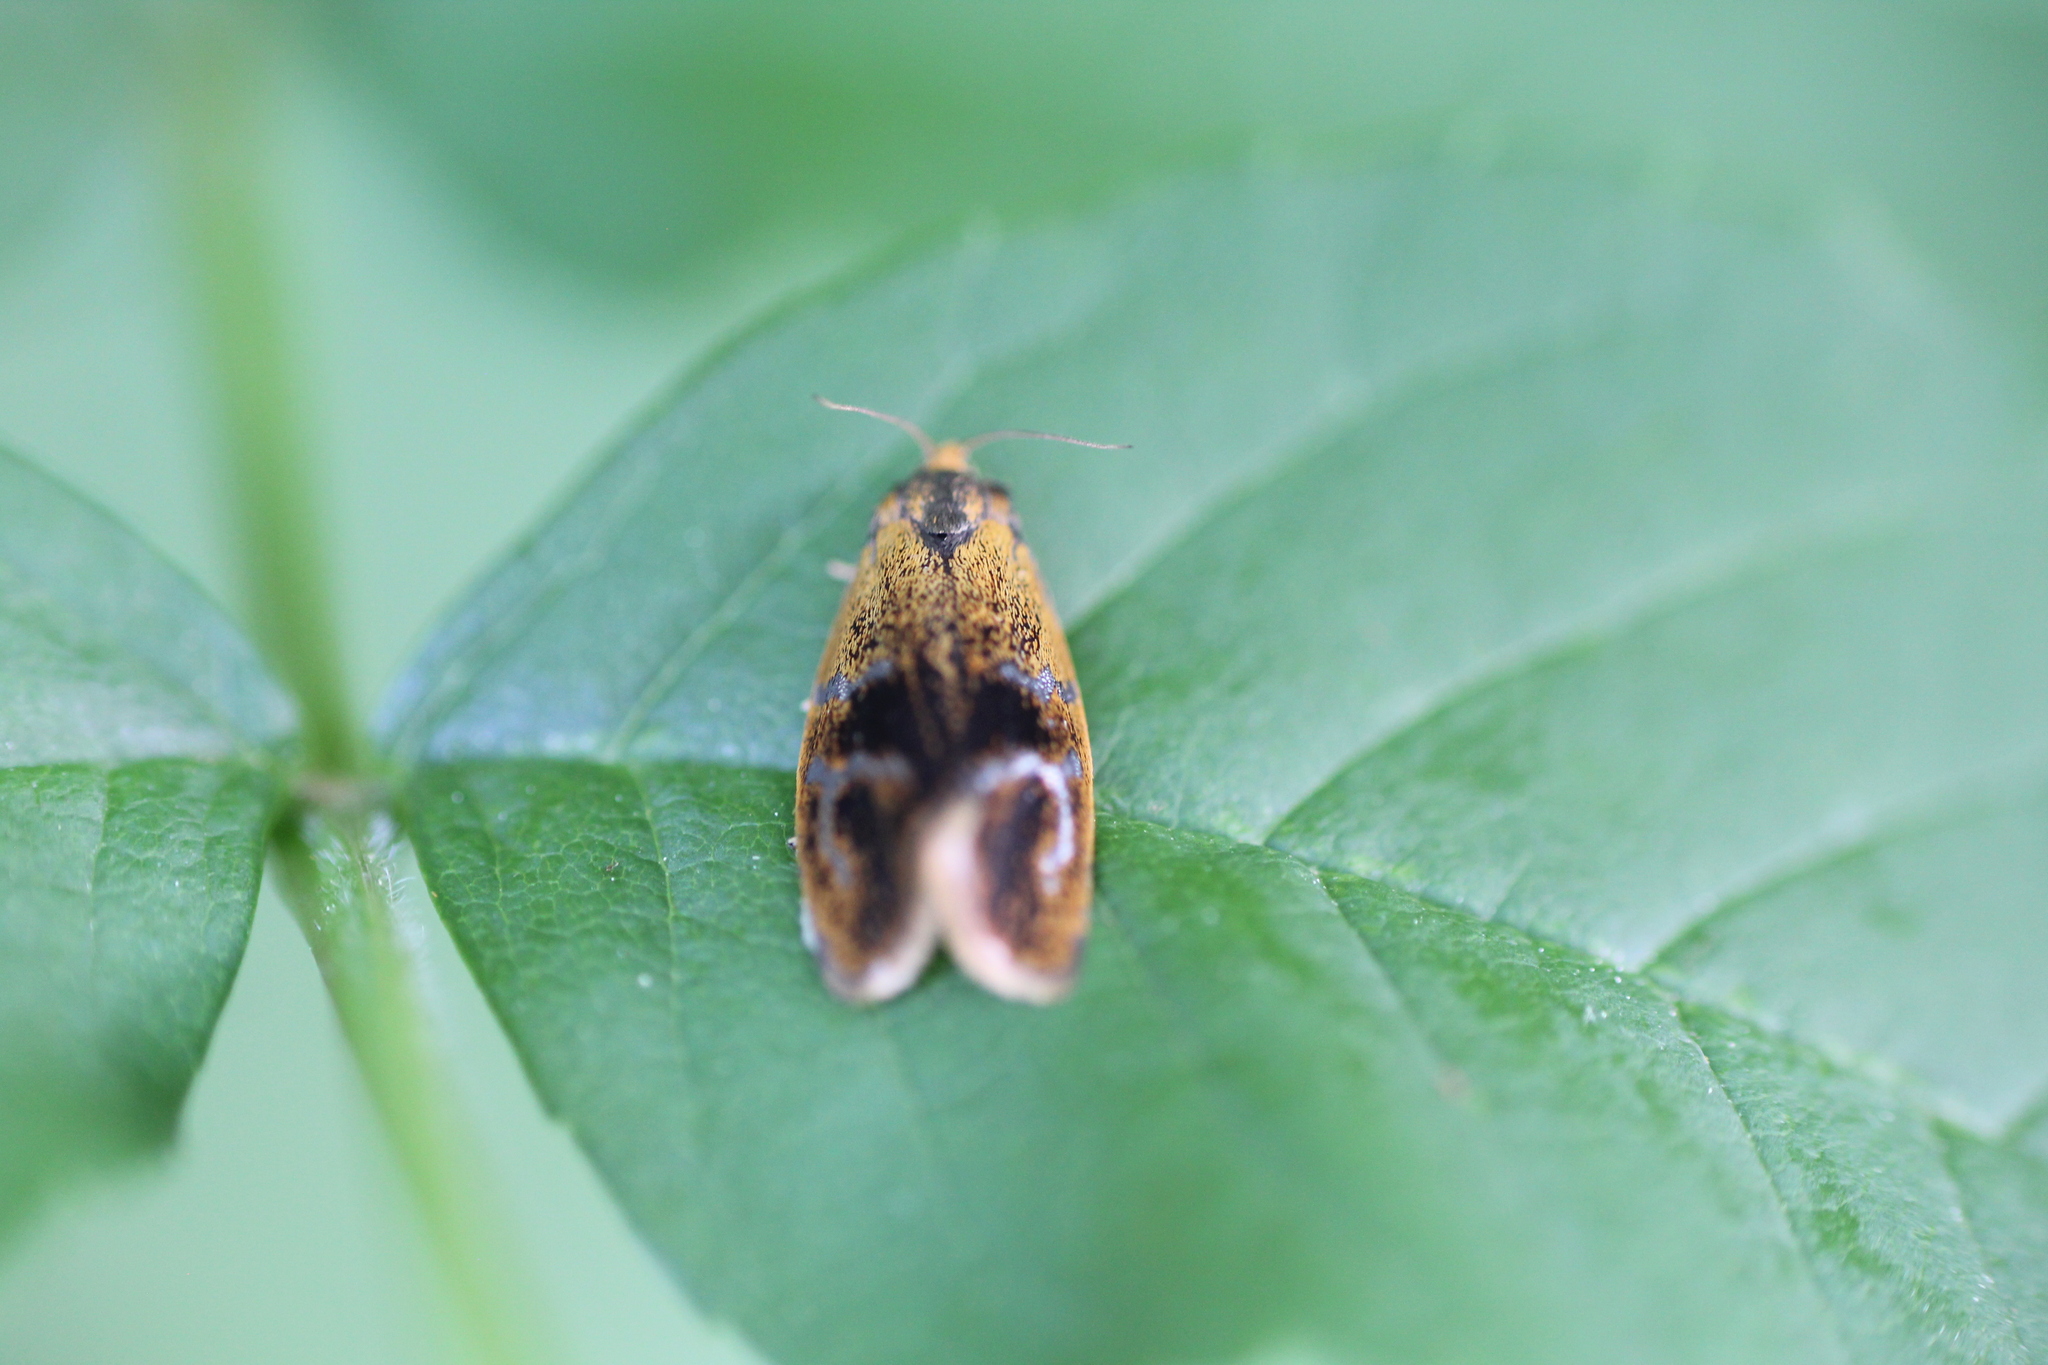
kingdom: Animalia
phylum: Arthropoda
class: Insecta
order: Lepidoptera
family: Tortricidae
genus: Ptycholoma
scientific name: Ptycholoma lecheana
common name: Leches twist moth
